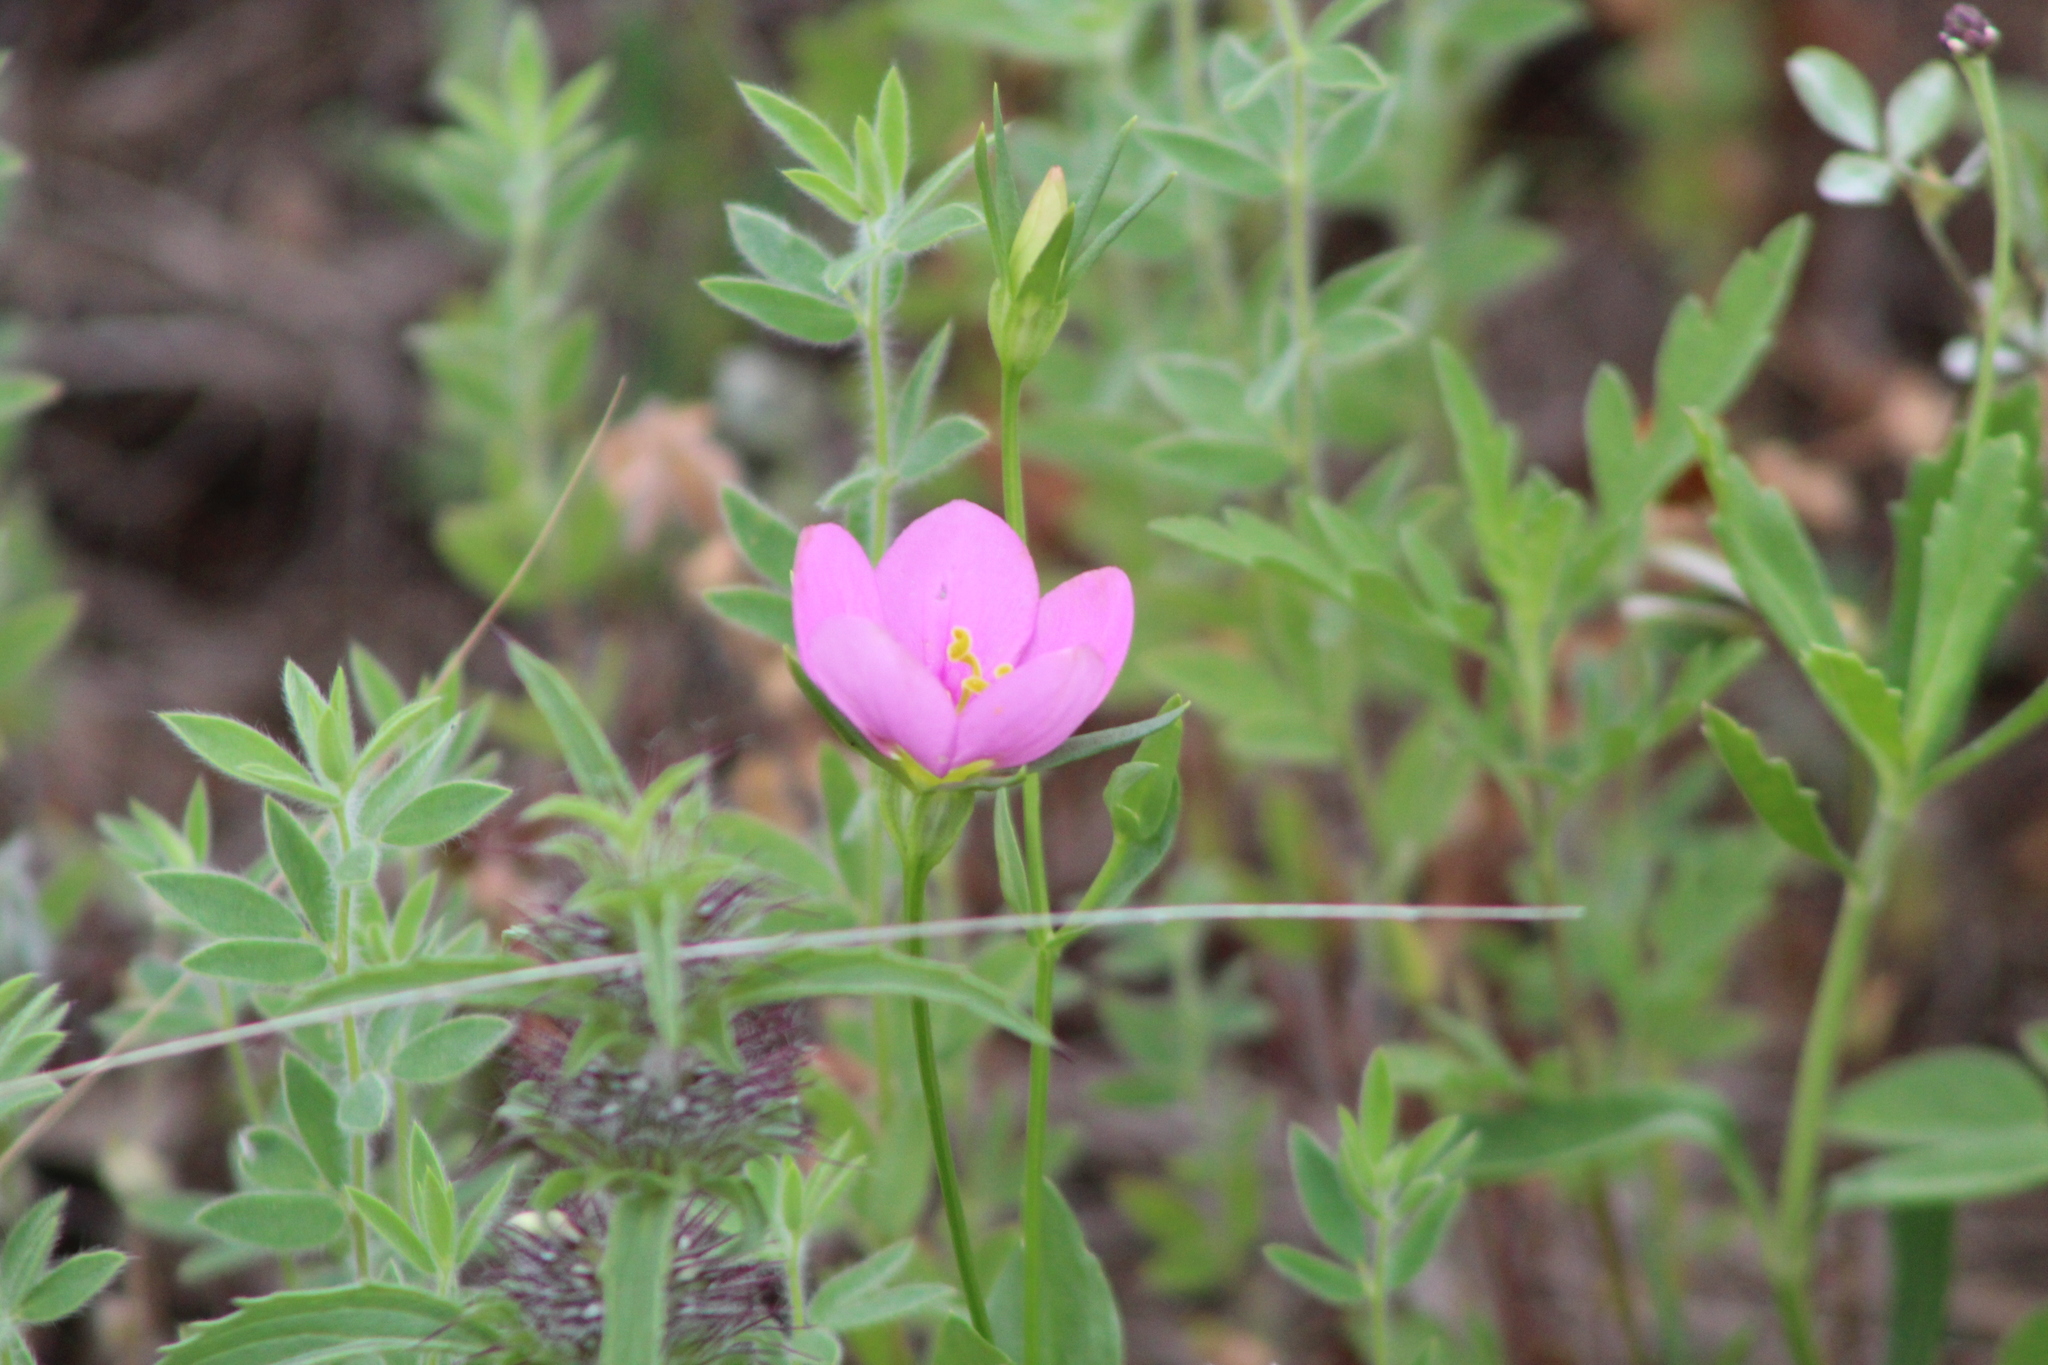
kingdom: Plantae
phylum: Tracheophyta
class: Magnoliopsida
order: Gentianales
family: Gentianaceae
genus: Sabatia
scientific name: Sabatia campestris
